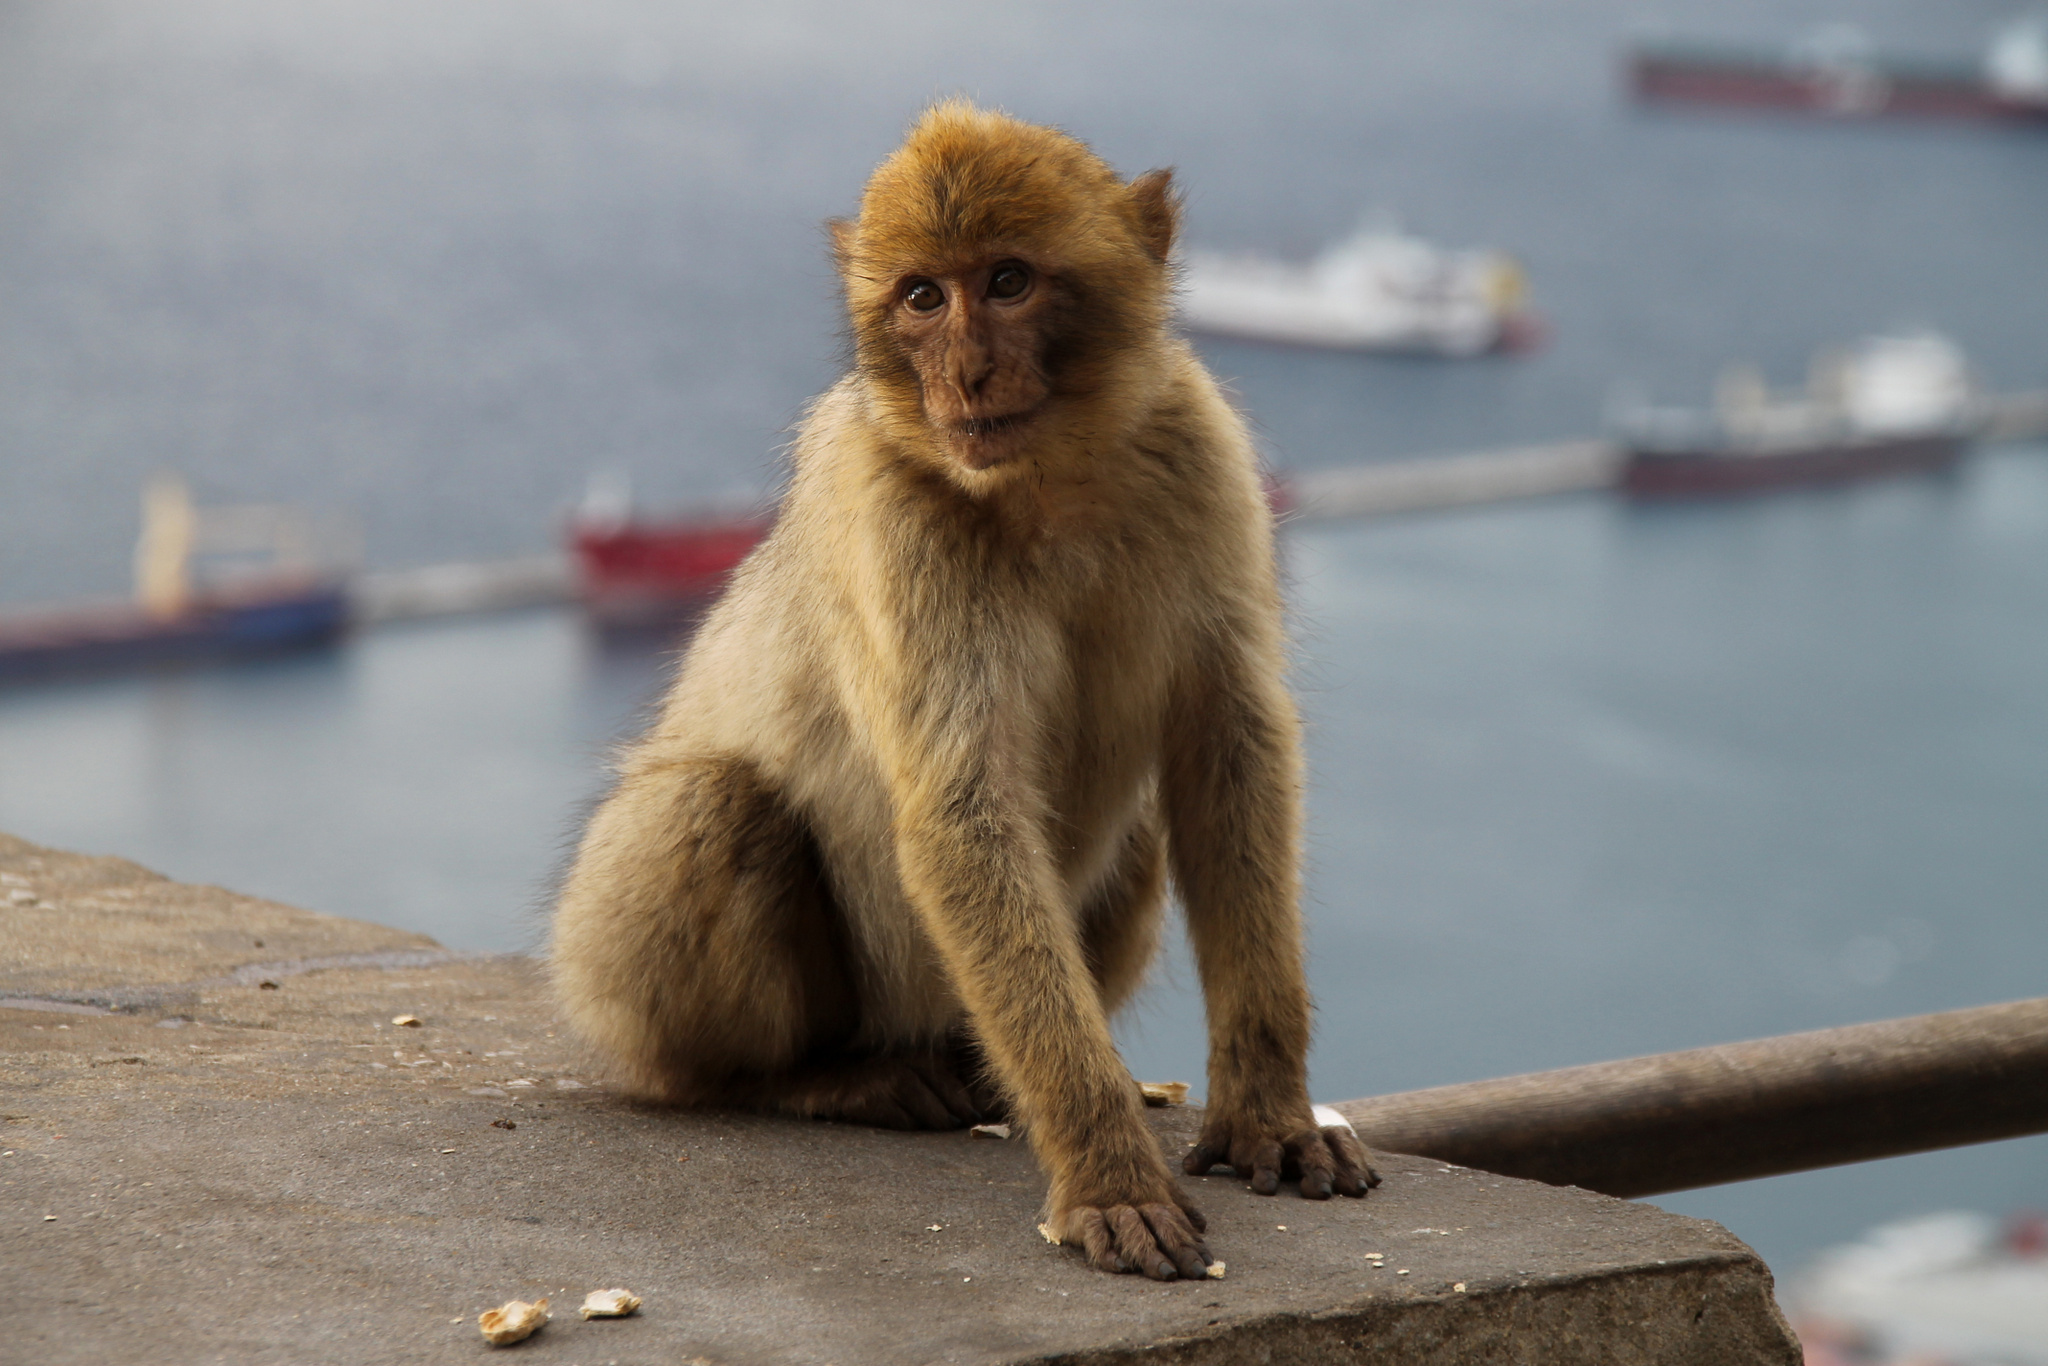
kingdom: Animalia
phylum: Chordata
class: Mammalia
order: Primates
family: Cercopithecidae
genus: Macaca
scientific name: Macaca sylvanus
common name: Barbary macaque
